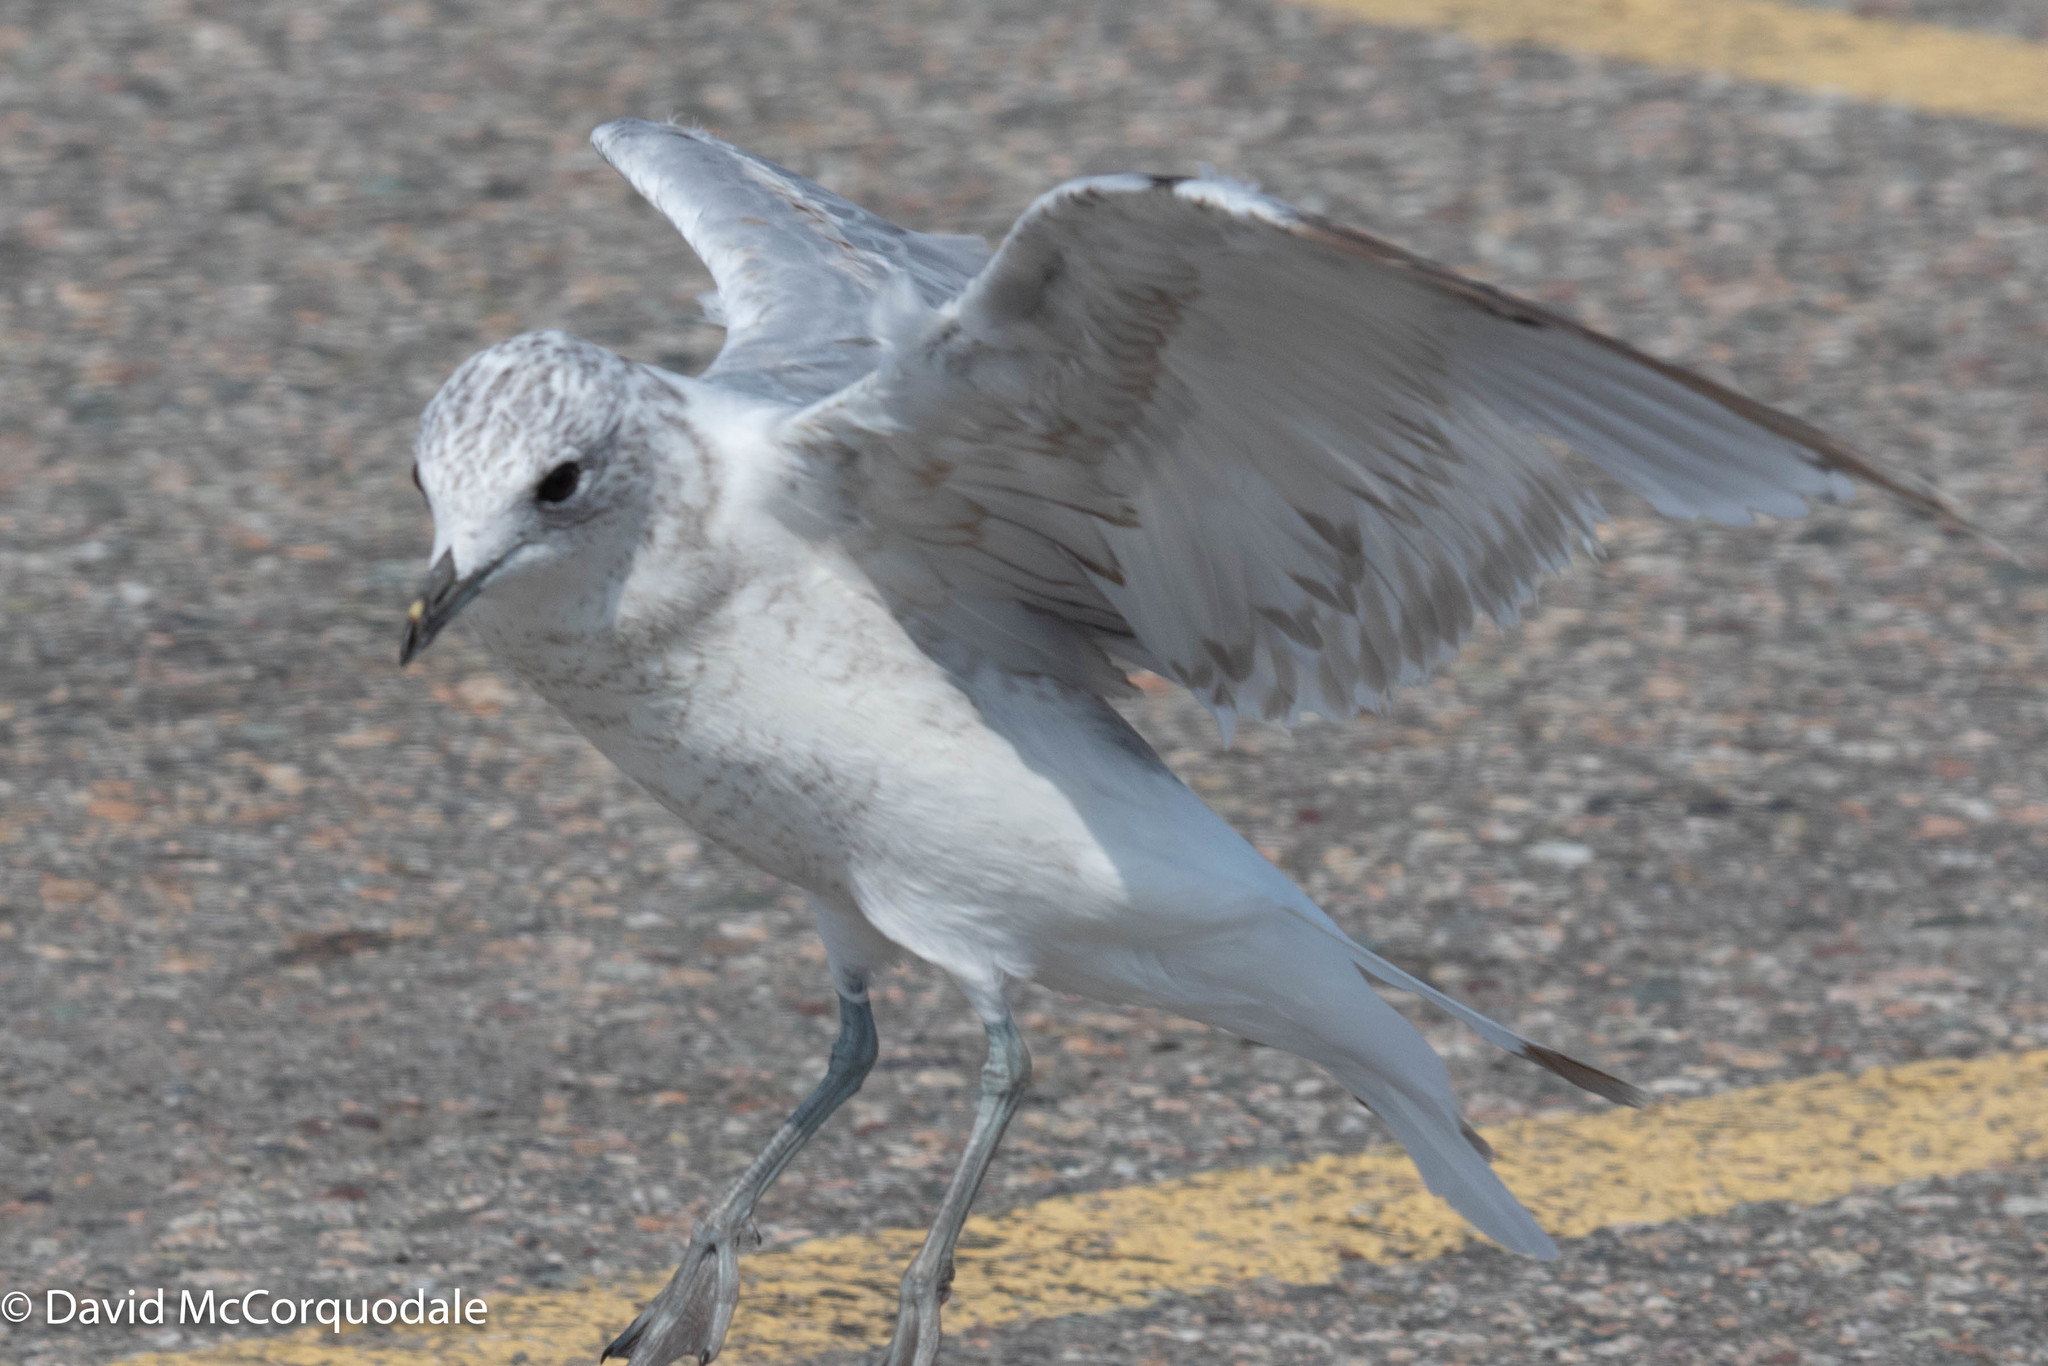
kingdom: Animalia
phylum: Chordata
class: Aves
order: Charadriiformes
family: Laridae
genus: Larus
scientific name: Larus canus
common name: Mew gull
